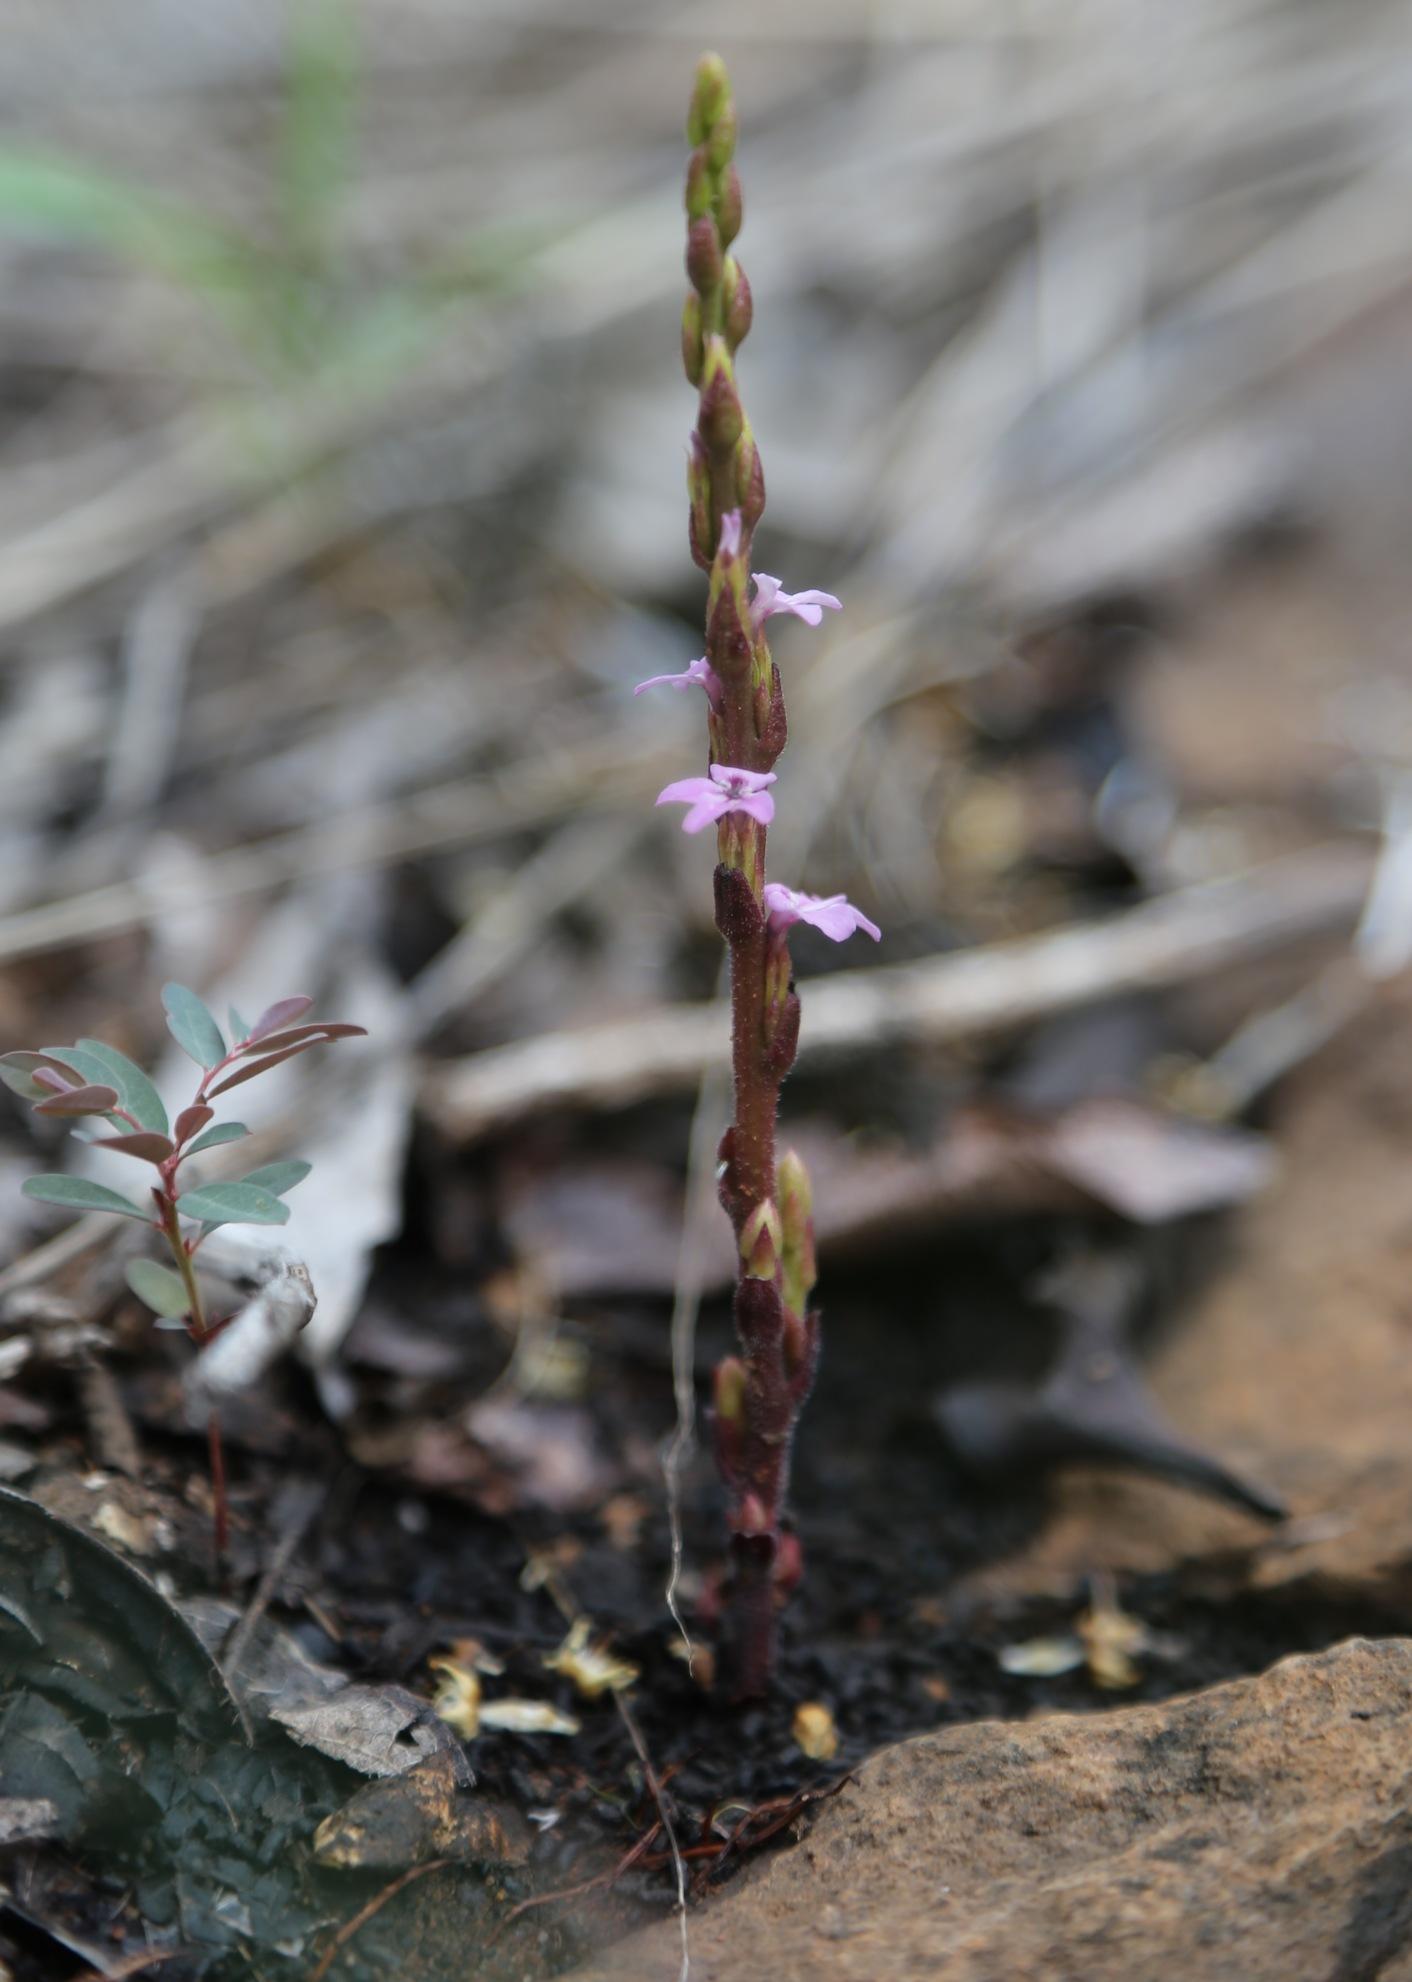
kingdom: Plantae
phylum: Tracheophyta
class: Magnoliopsida
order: Lamiales
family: Orobanchaceae
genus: Striga
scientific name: Striga gesnerioides
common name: Cowpea witchweed
